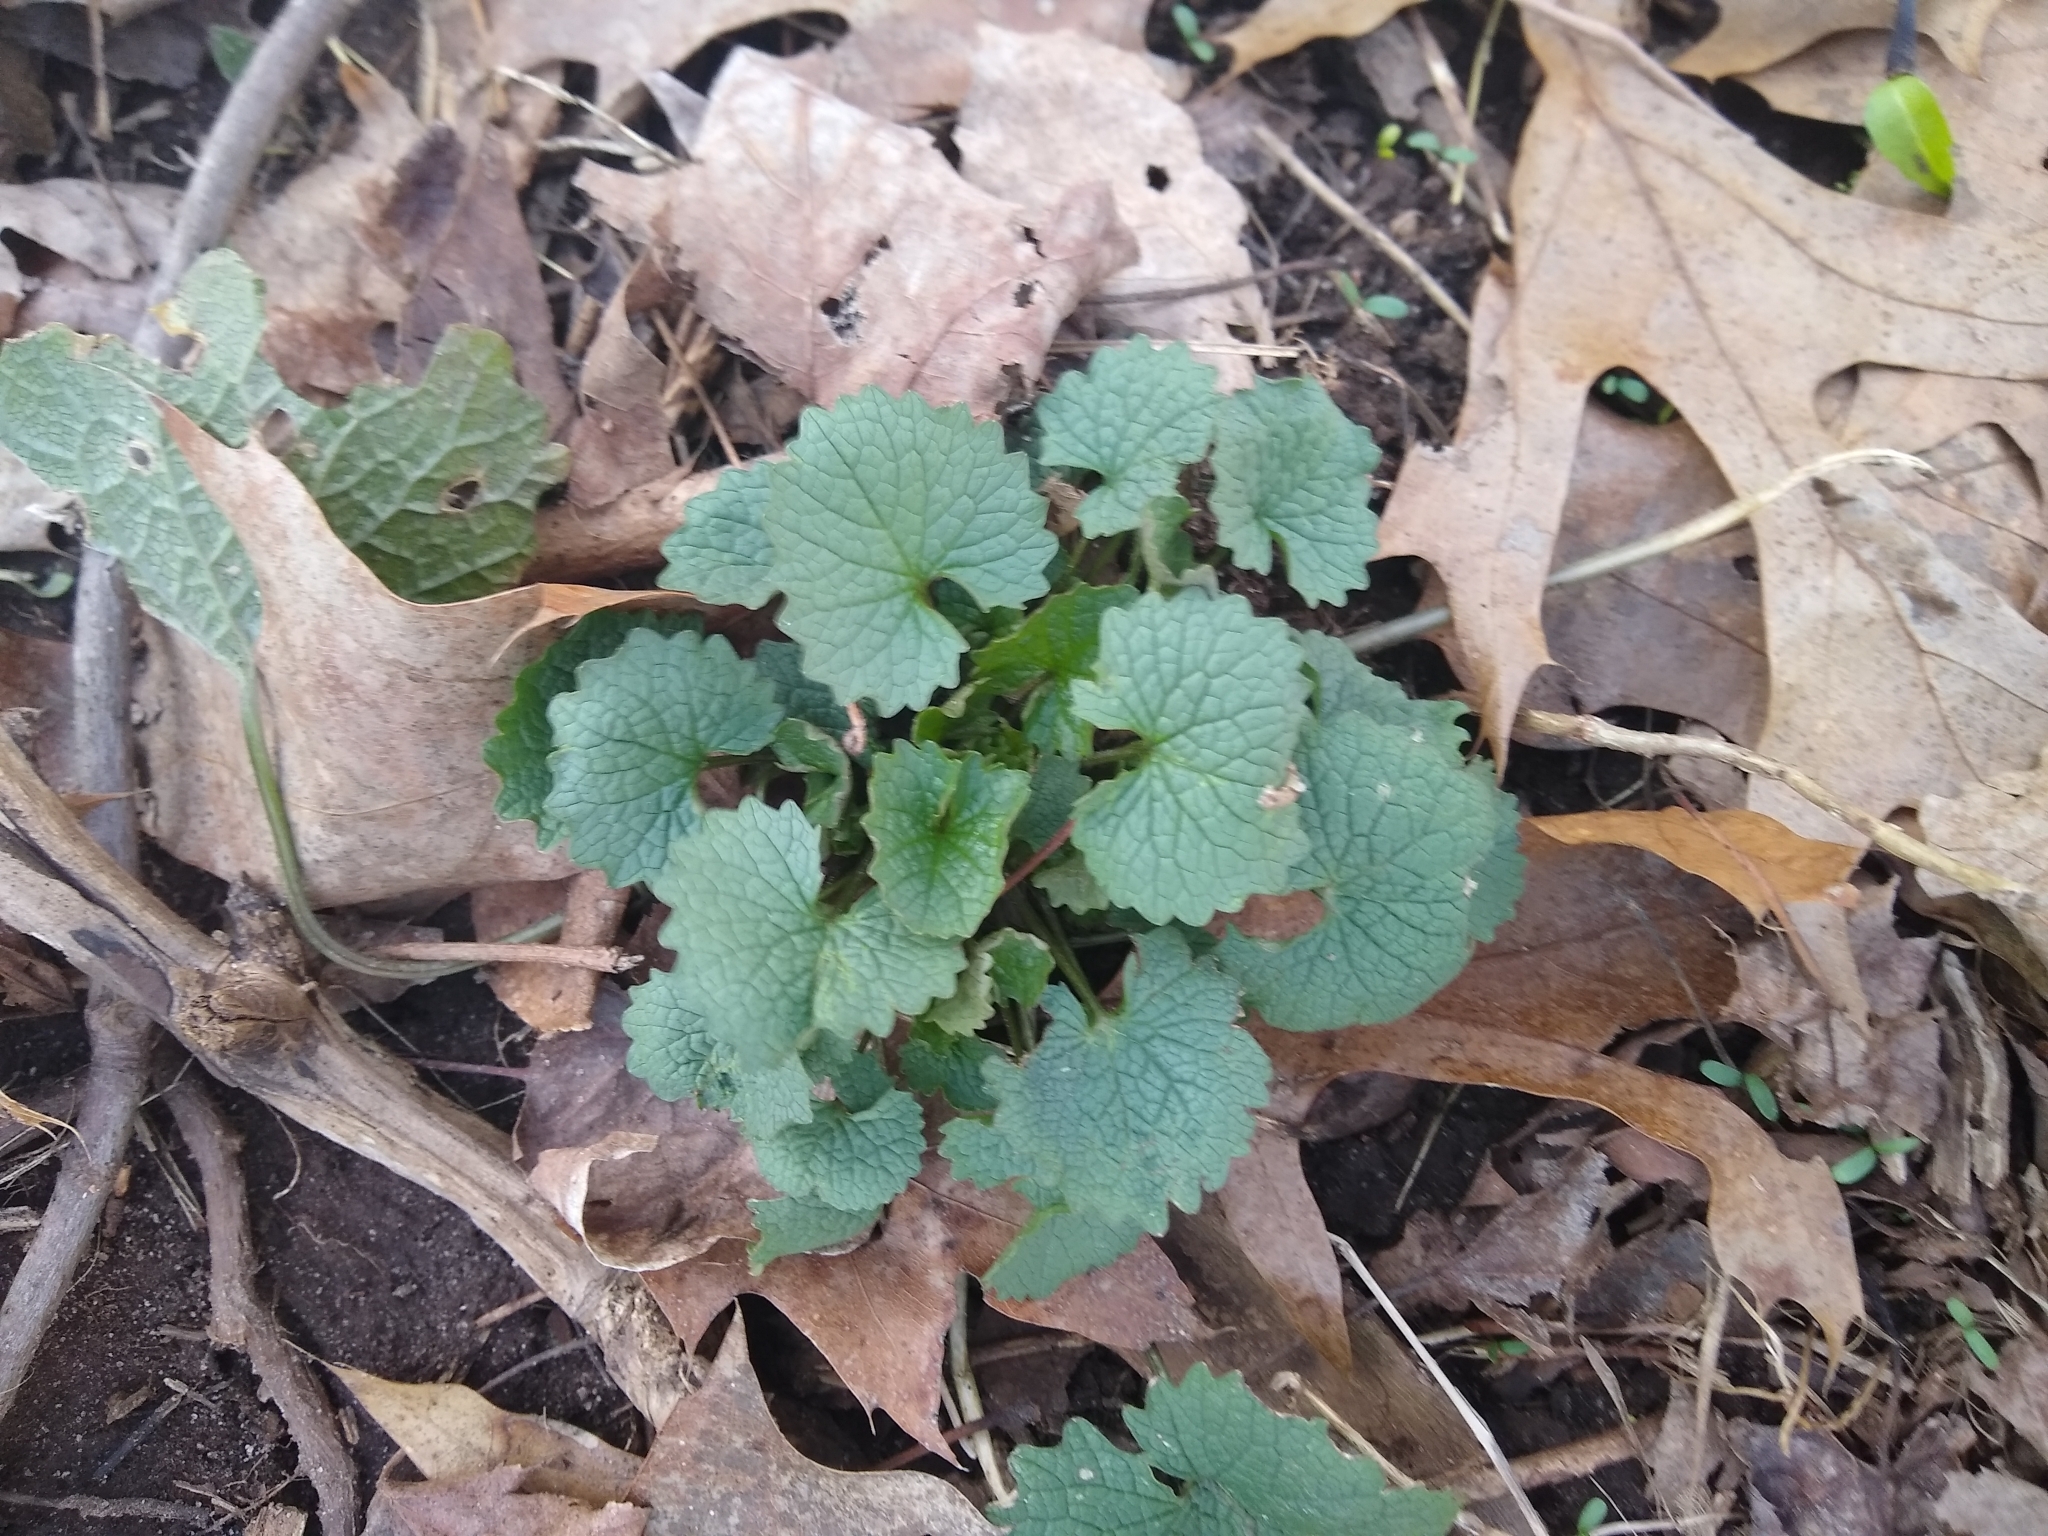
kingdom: Plantae
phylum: Tracheophyta
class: Magnoliopsida
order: Brassicales
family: Brassicaceae
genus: Alliaria
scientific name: Alliaria petiolata
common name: Garlic mustard
